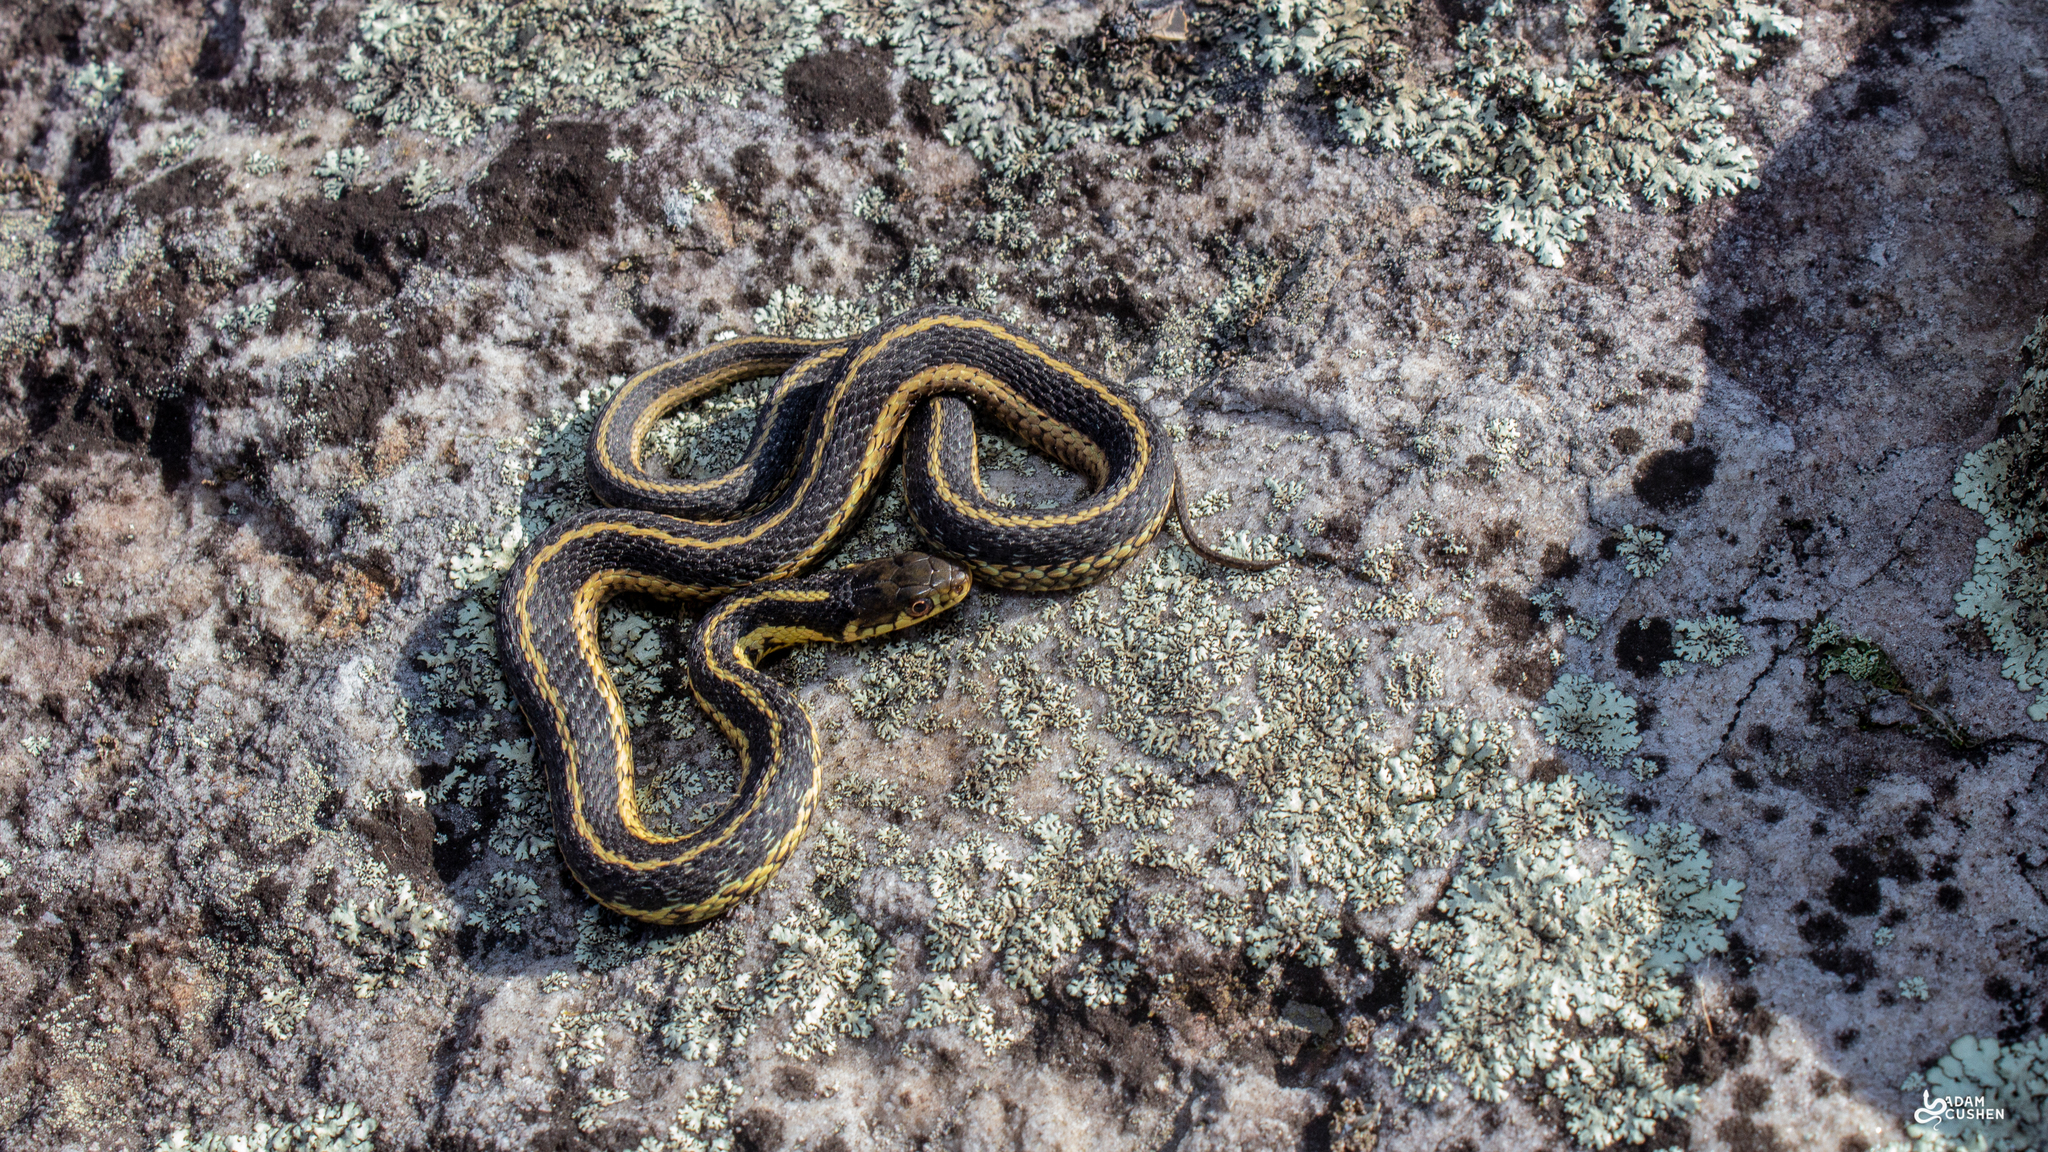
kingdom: Animalia
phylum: Chordata
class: Squamata
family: Colubridae
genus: Thamnophis
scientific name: Thamnophis sirtalis
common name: Common garter snake
